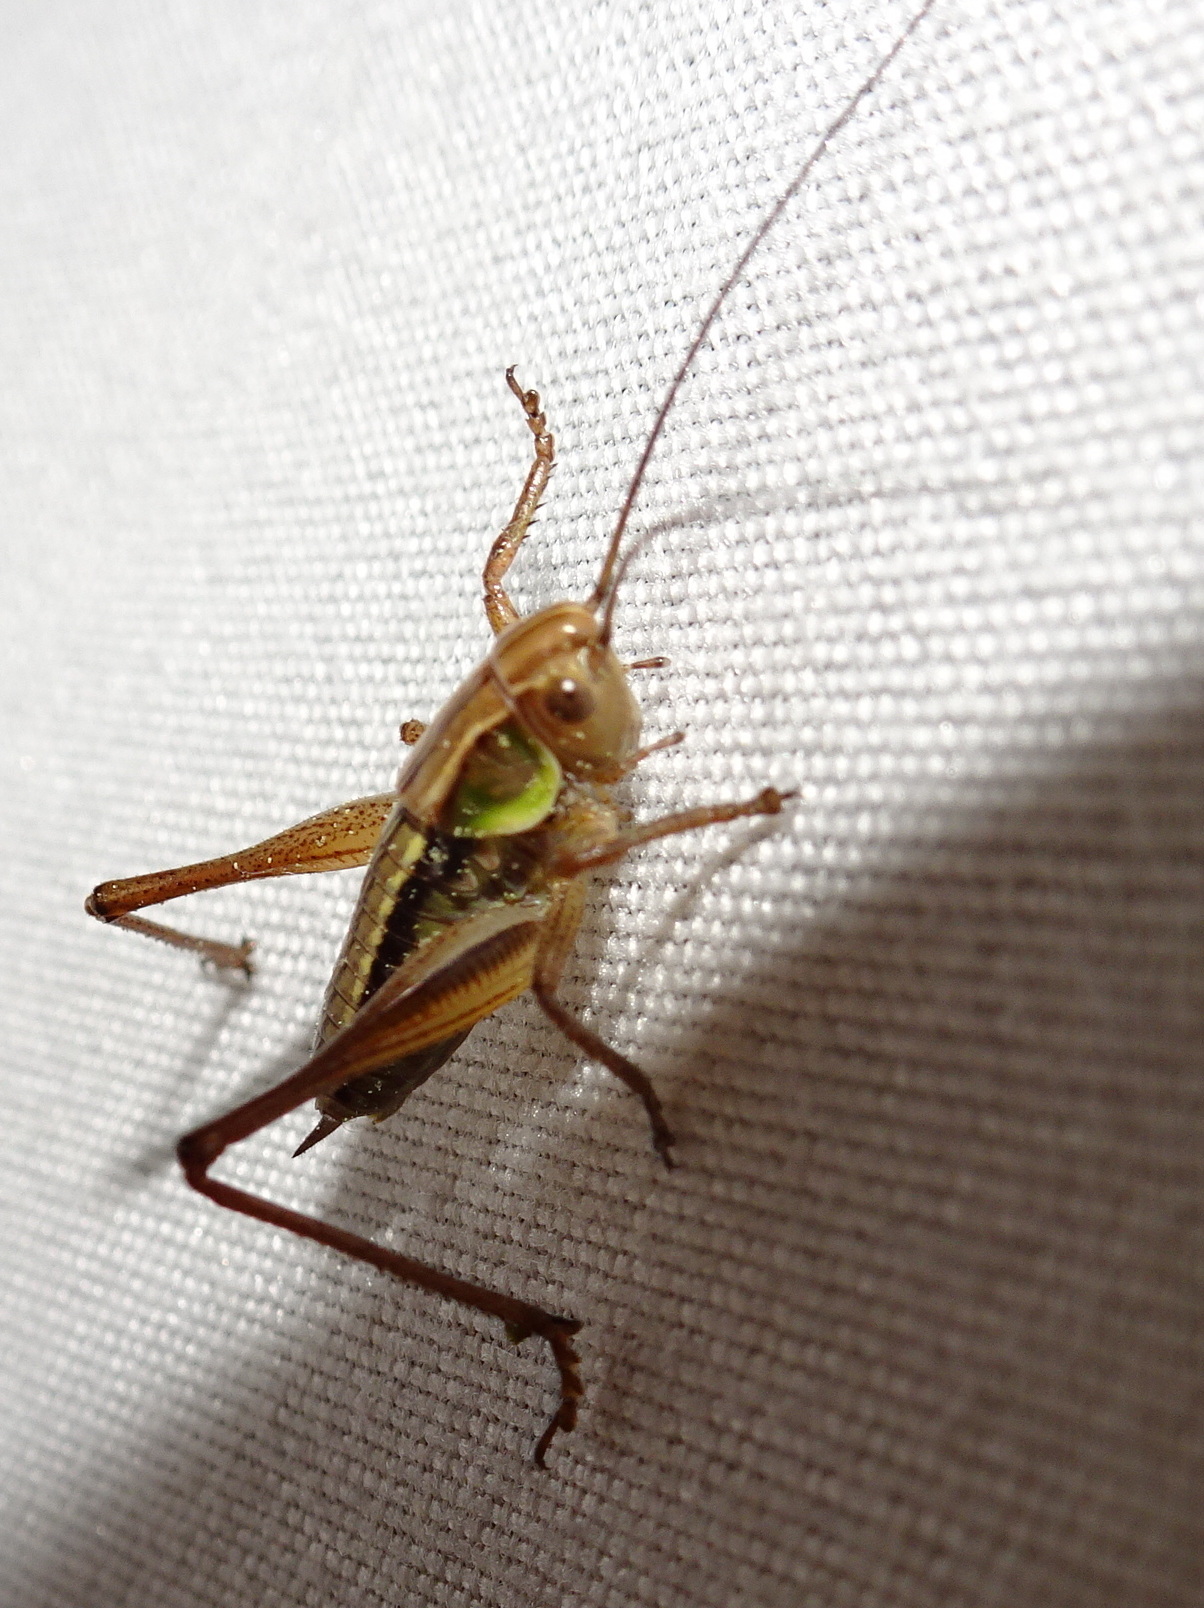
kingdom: Animalia
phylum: Arthropoda
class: Insecta
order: Orthoptera
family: Tettigoniidae
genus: Roeseliana
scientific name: Roeseliana roeselii
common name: Roesel's bush cricket
